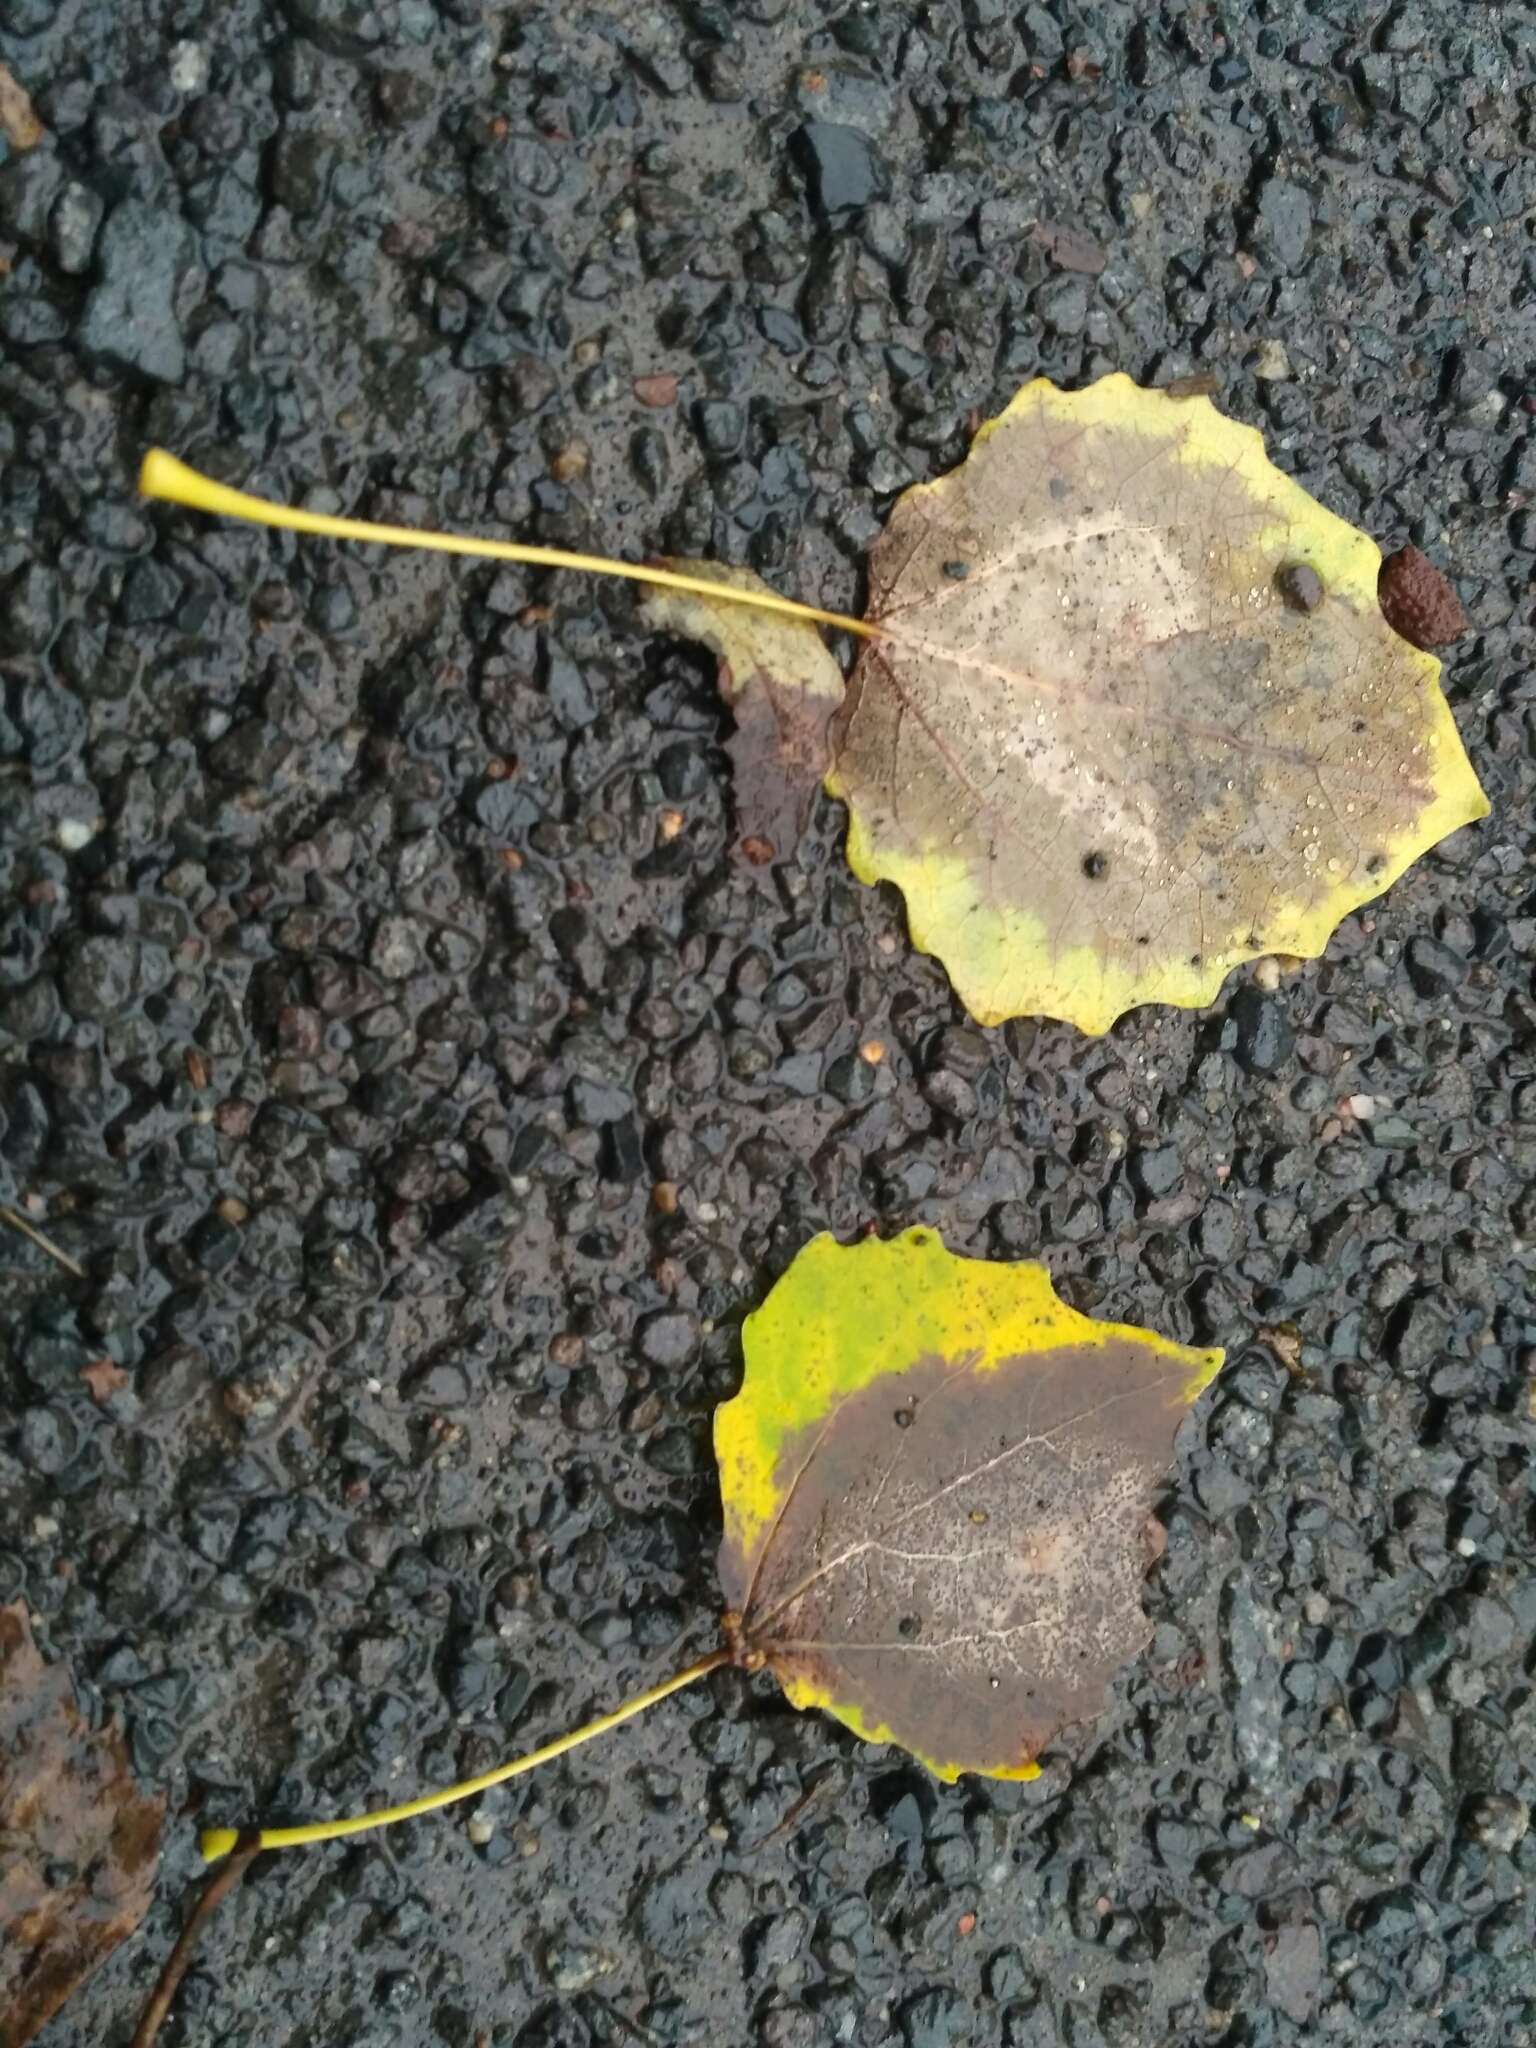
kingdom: Plantae
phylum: Tracheophyta
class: Magnoliopsida
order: Malpighiales
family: Salicaceae
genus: Populus
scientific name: Populus tremula
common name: European aspen
